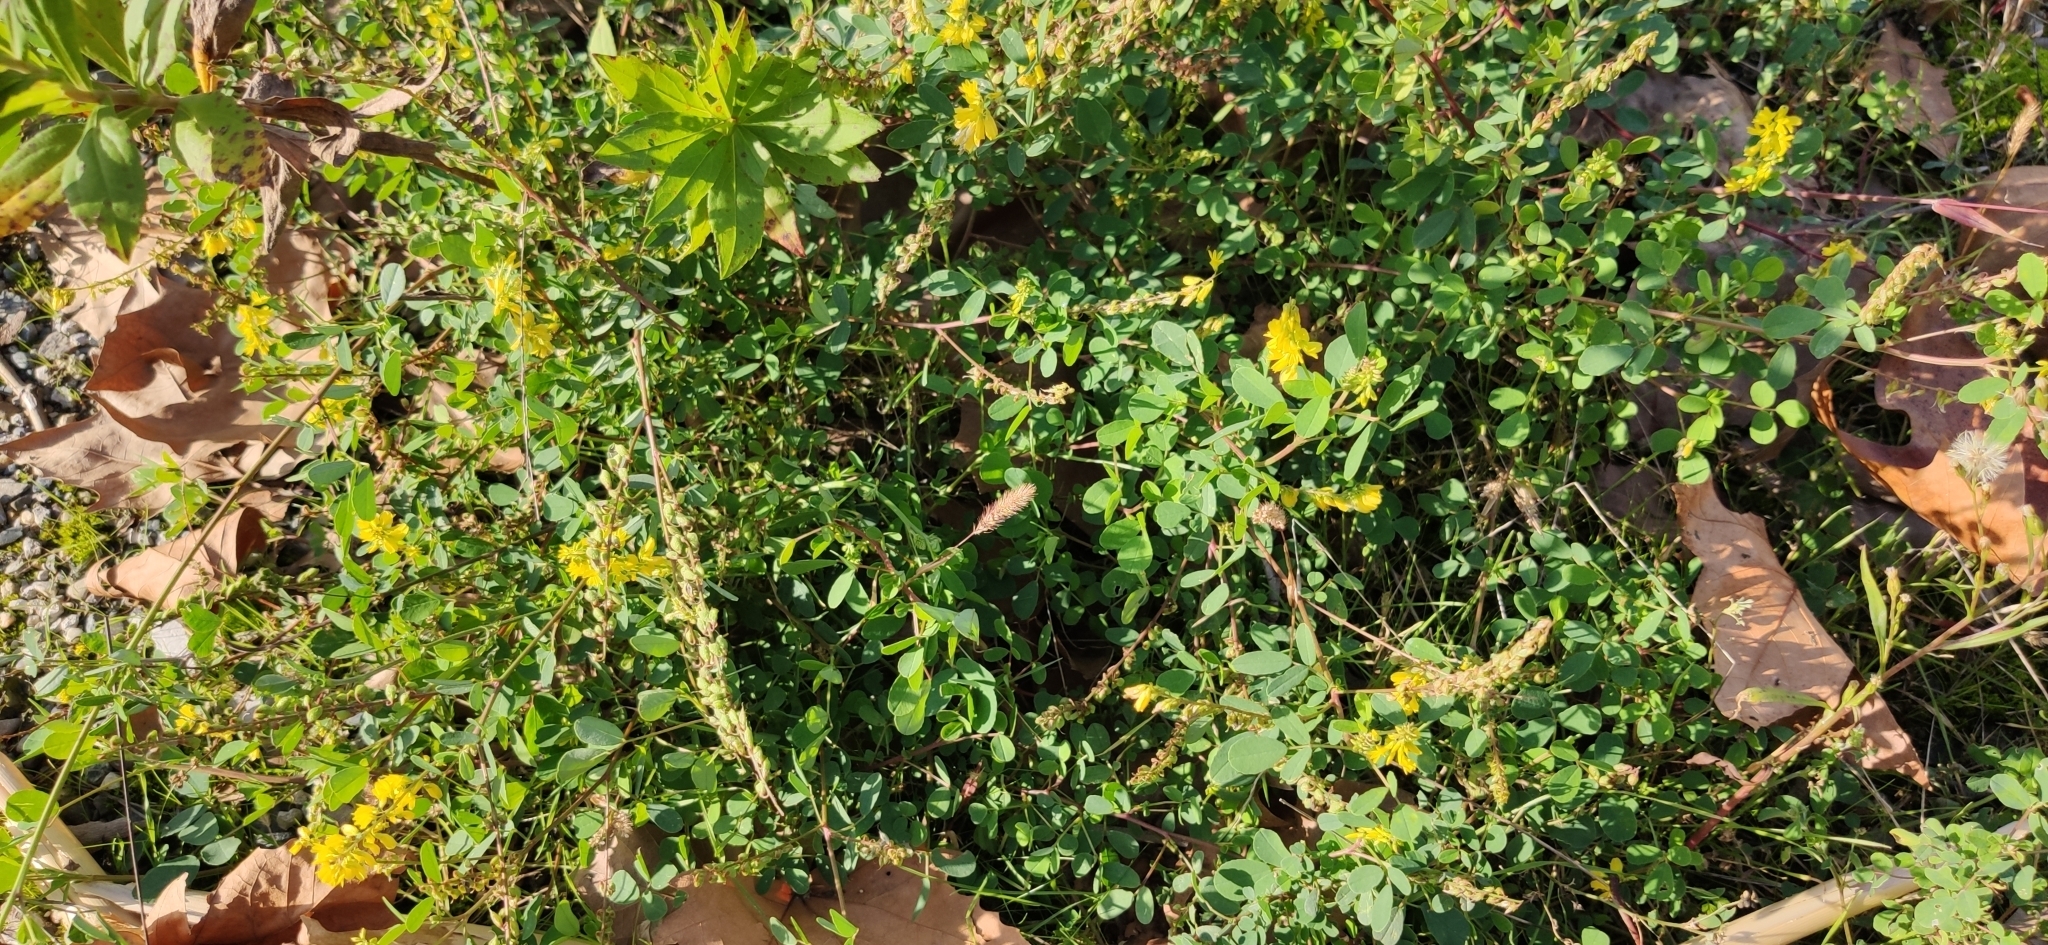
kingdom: Plantae
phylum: Tracheophyta
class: Magnoliopsida
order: Fabales
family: Fabaceae
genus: Melilotus
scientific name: Melilotus officinalis
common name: Sweetclover
